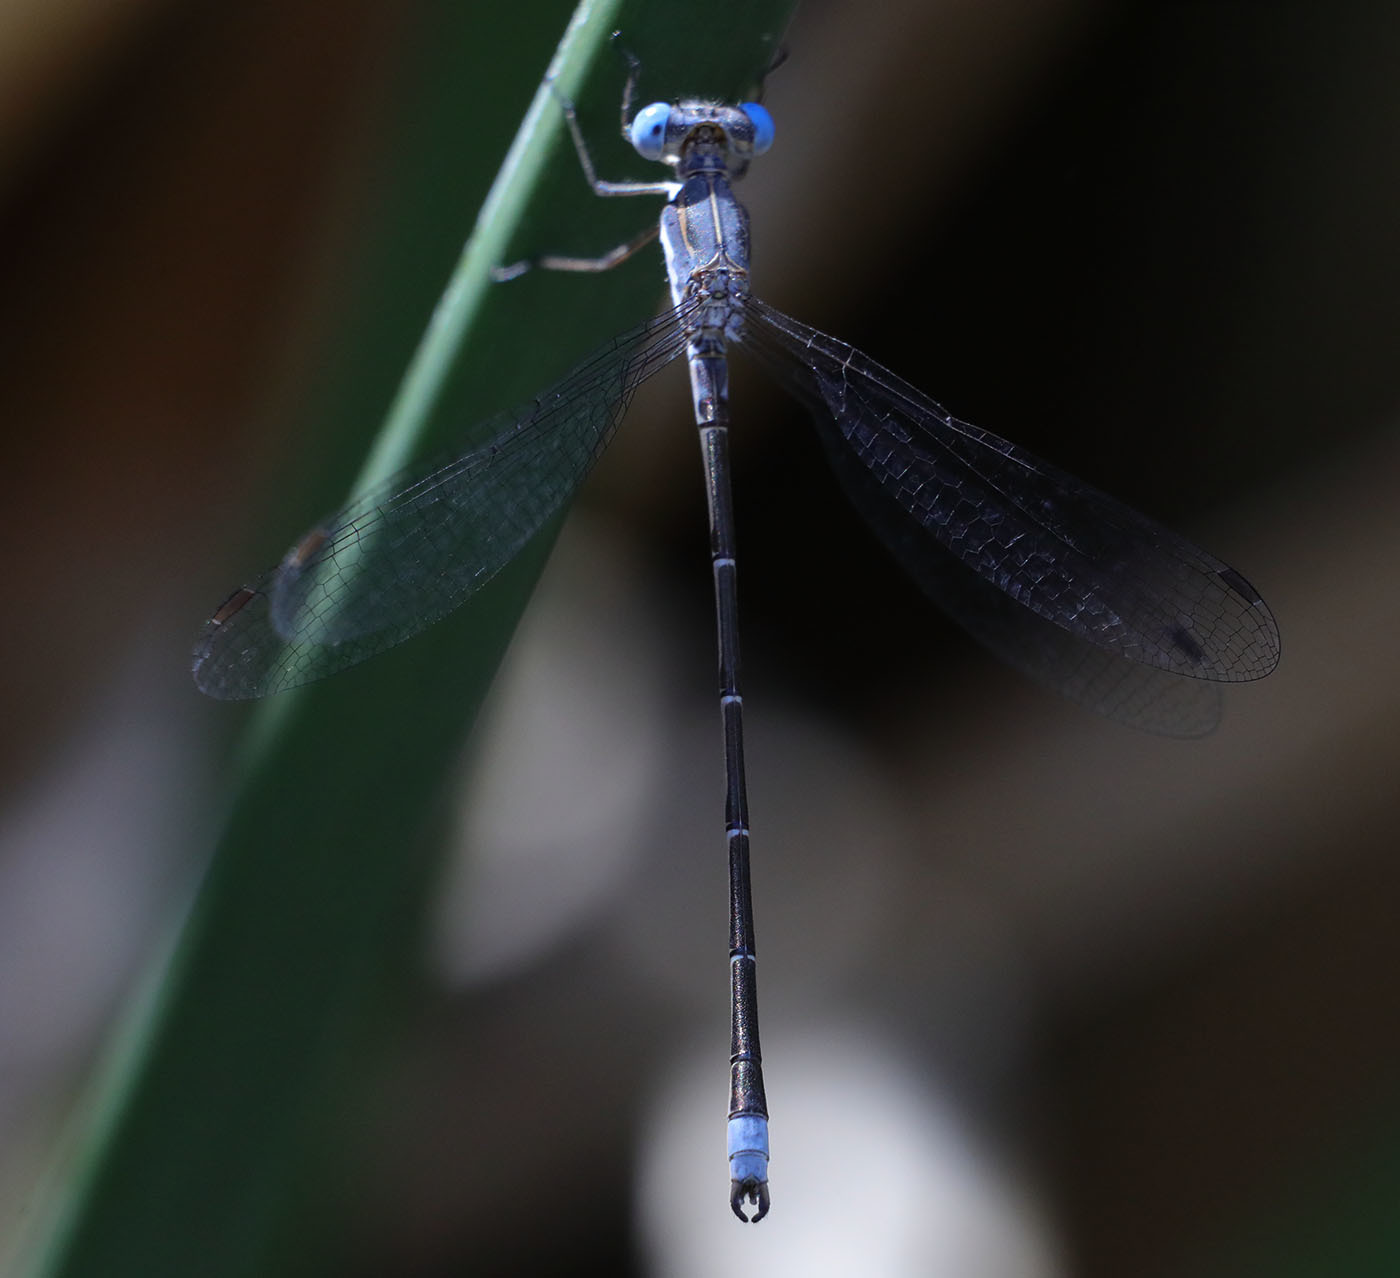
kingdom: Animalia
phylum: Arthropoda
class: Insecta
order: Odonata
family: Lestidae
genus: Lestes
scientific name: Lestes congener
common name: Spotted spreadwing
